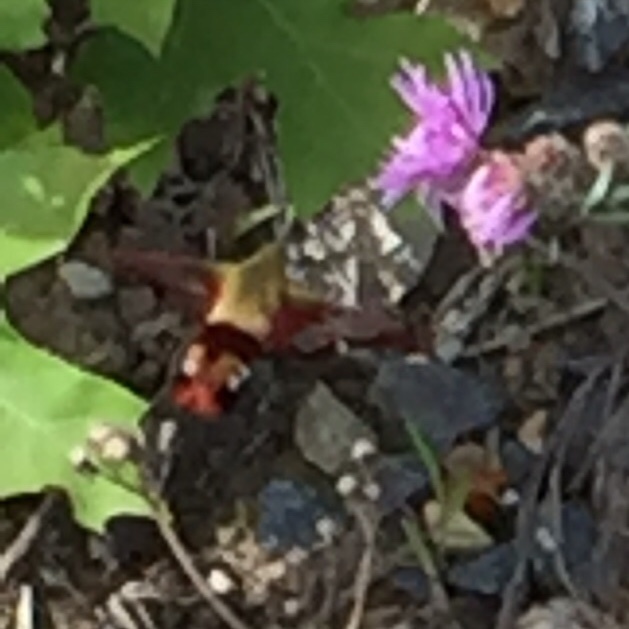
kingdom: Animalia
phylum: Arthropoda
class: Insecta
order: Lepidoptera
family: Sphingidae
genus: Hemaris
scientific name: Hemaris thysbe
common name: Common clear-wing
